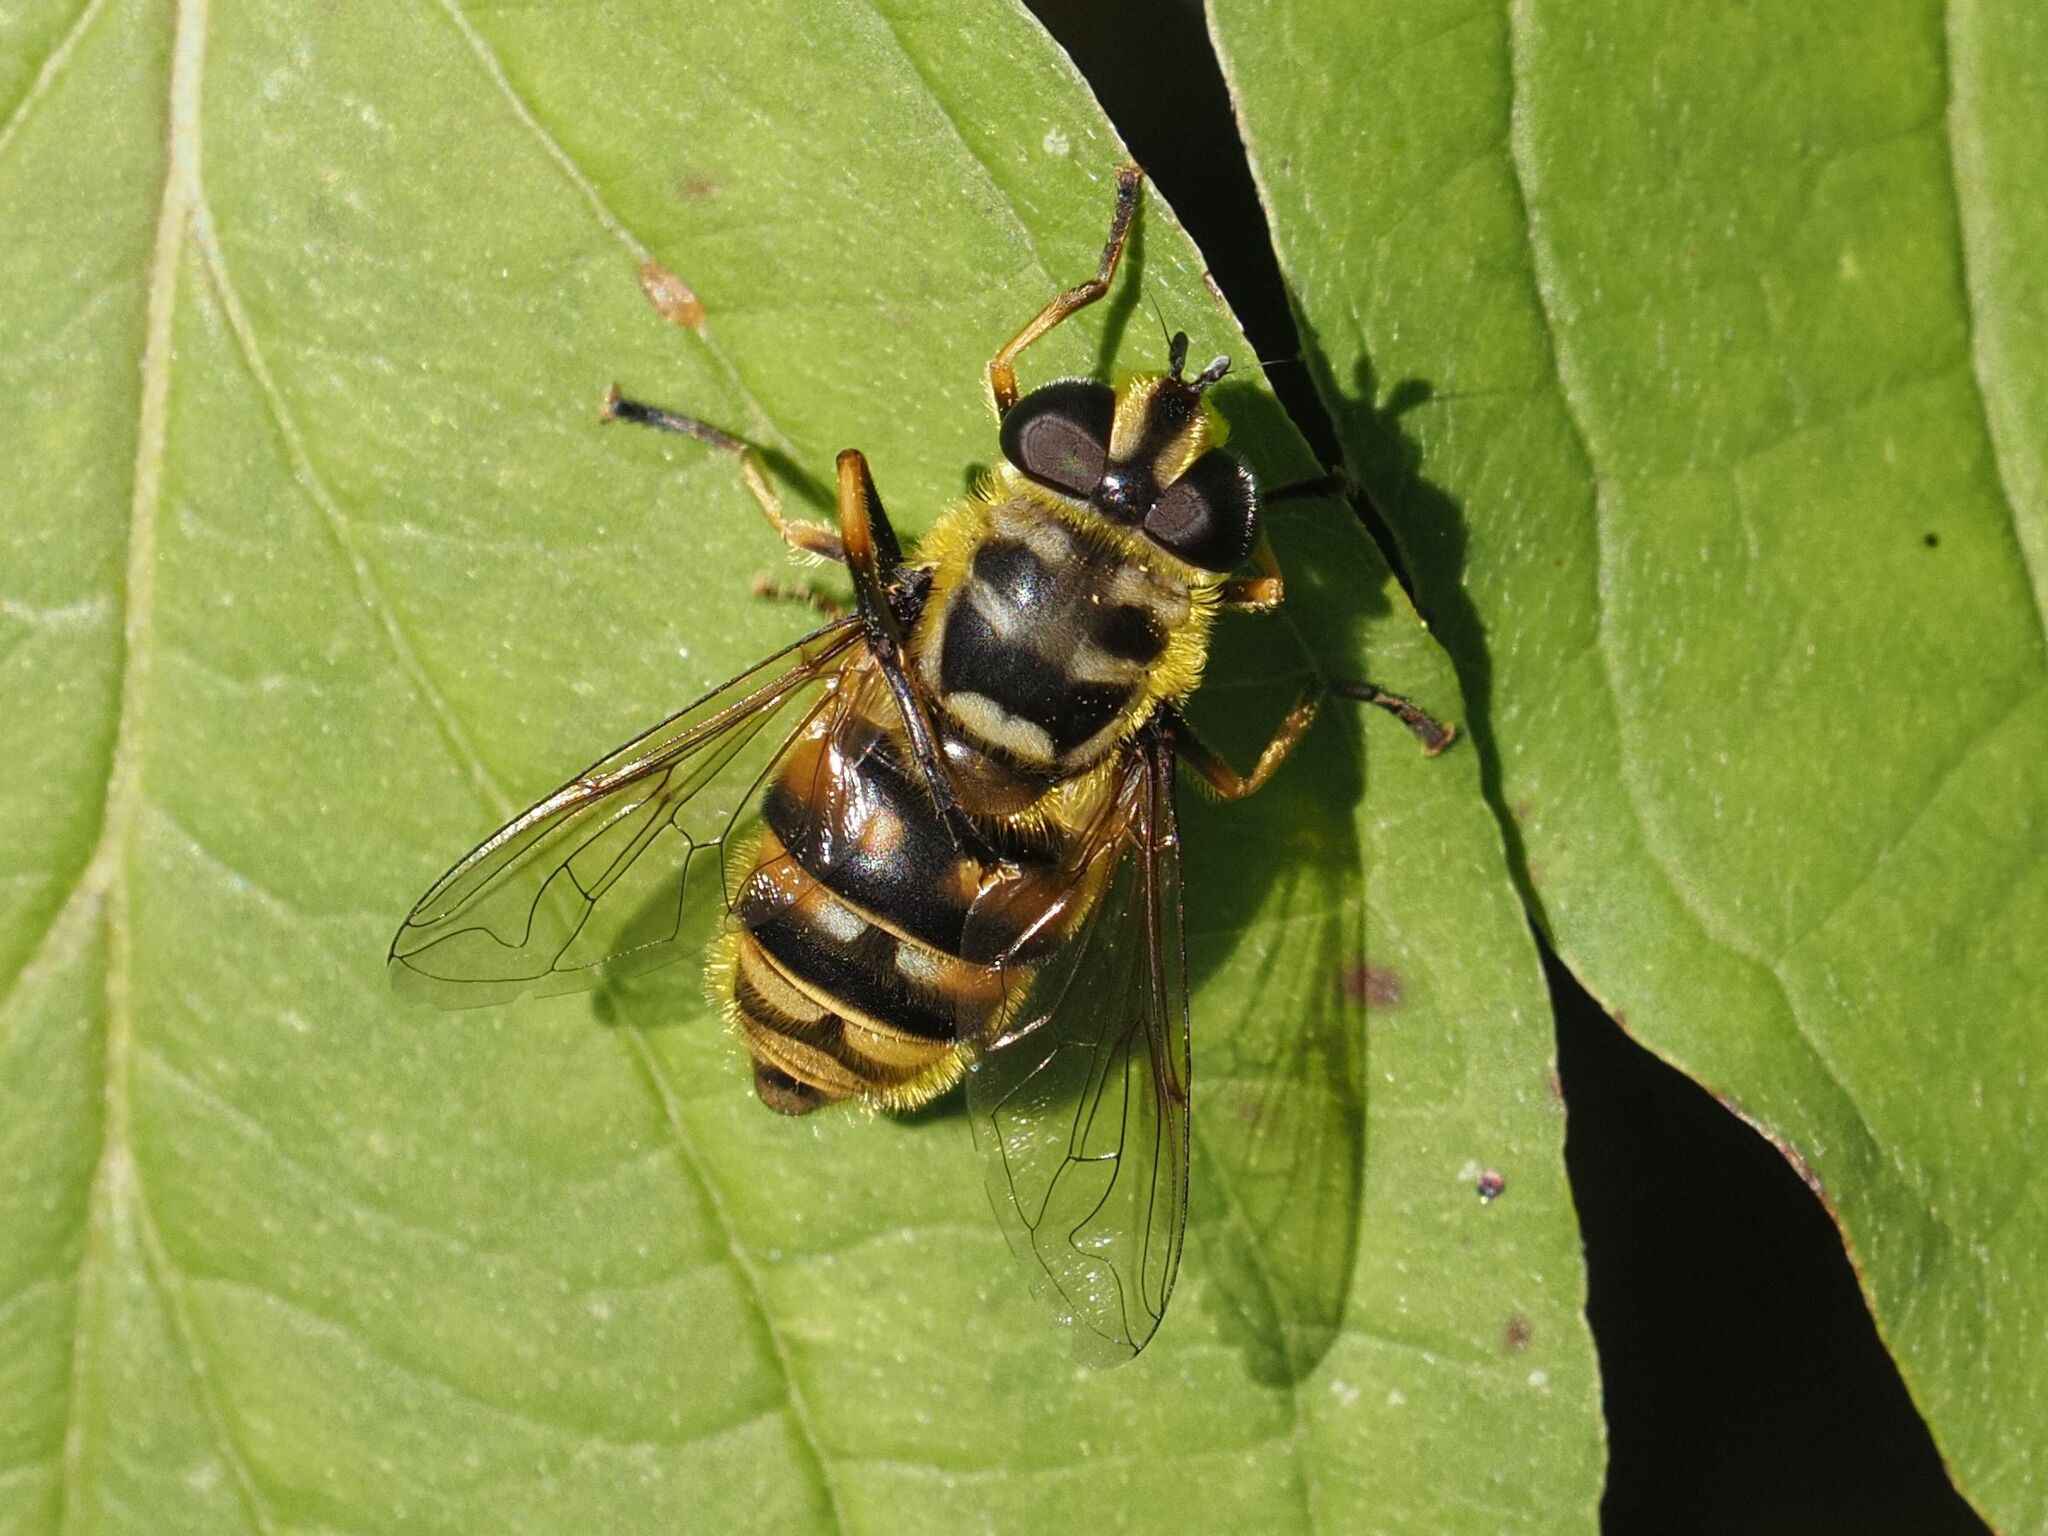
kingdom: Animalia
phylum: Arthropoda
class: Insecta
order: Diptera
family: Syrphidae
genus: Myathropa
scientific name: Myathropa florea
